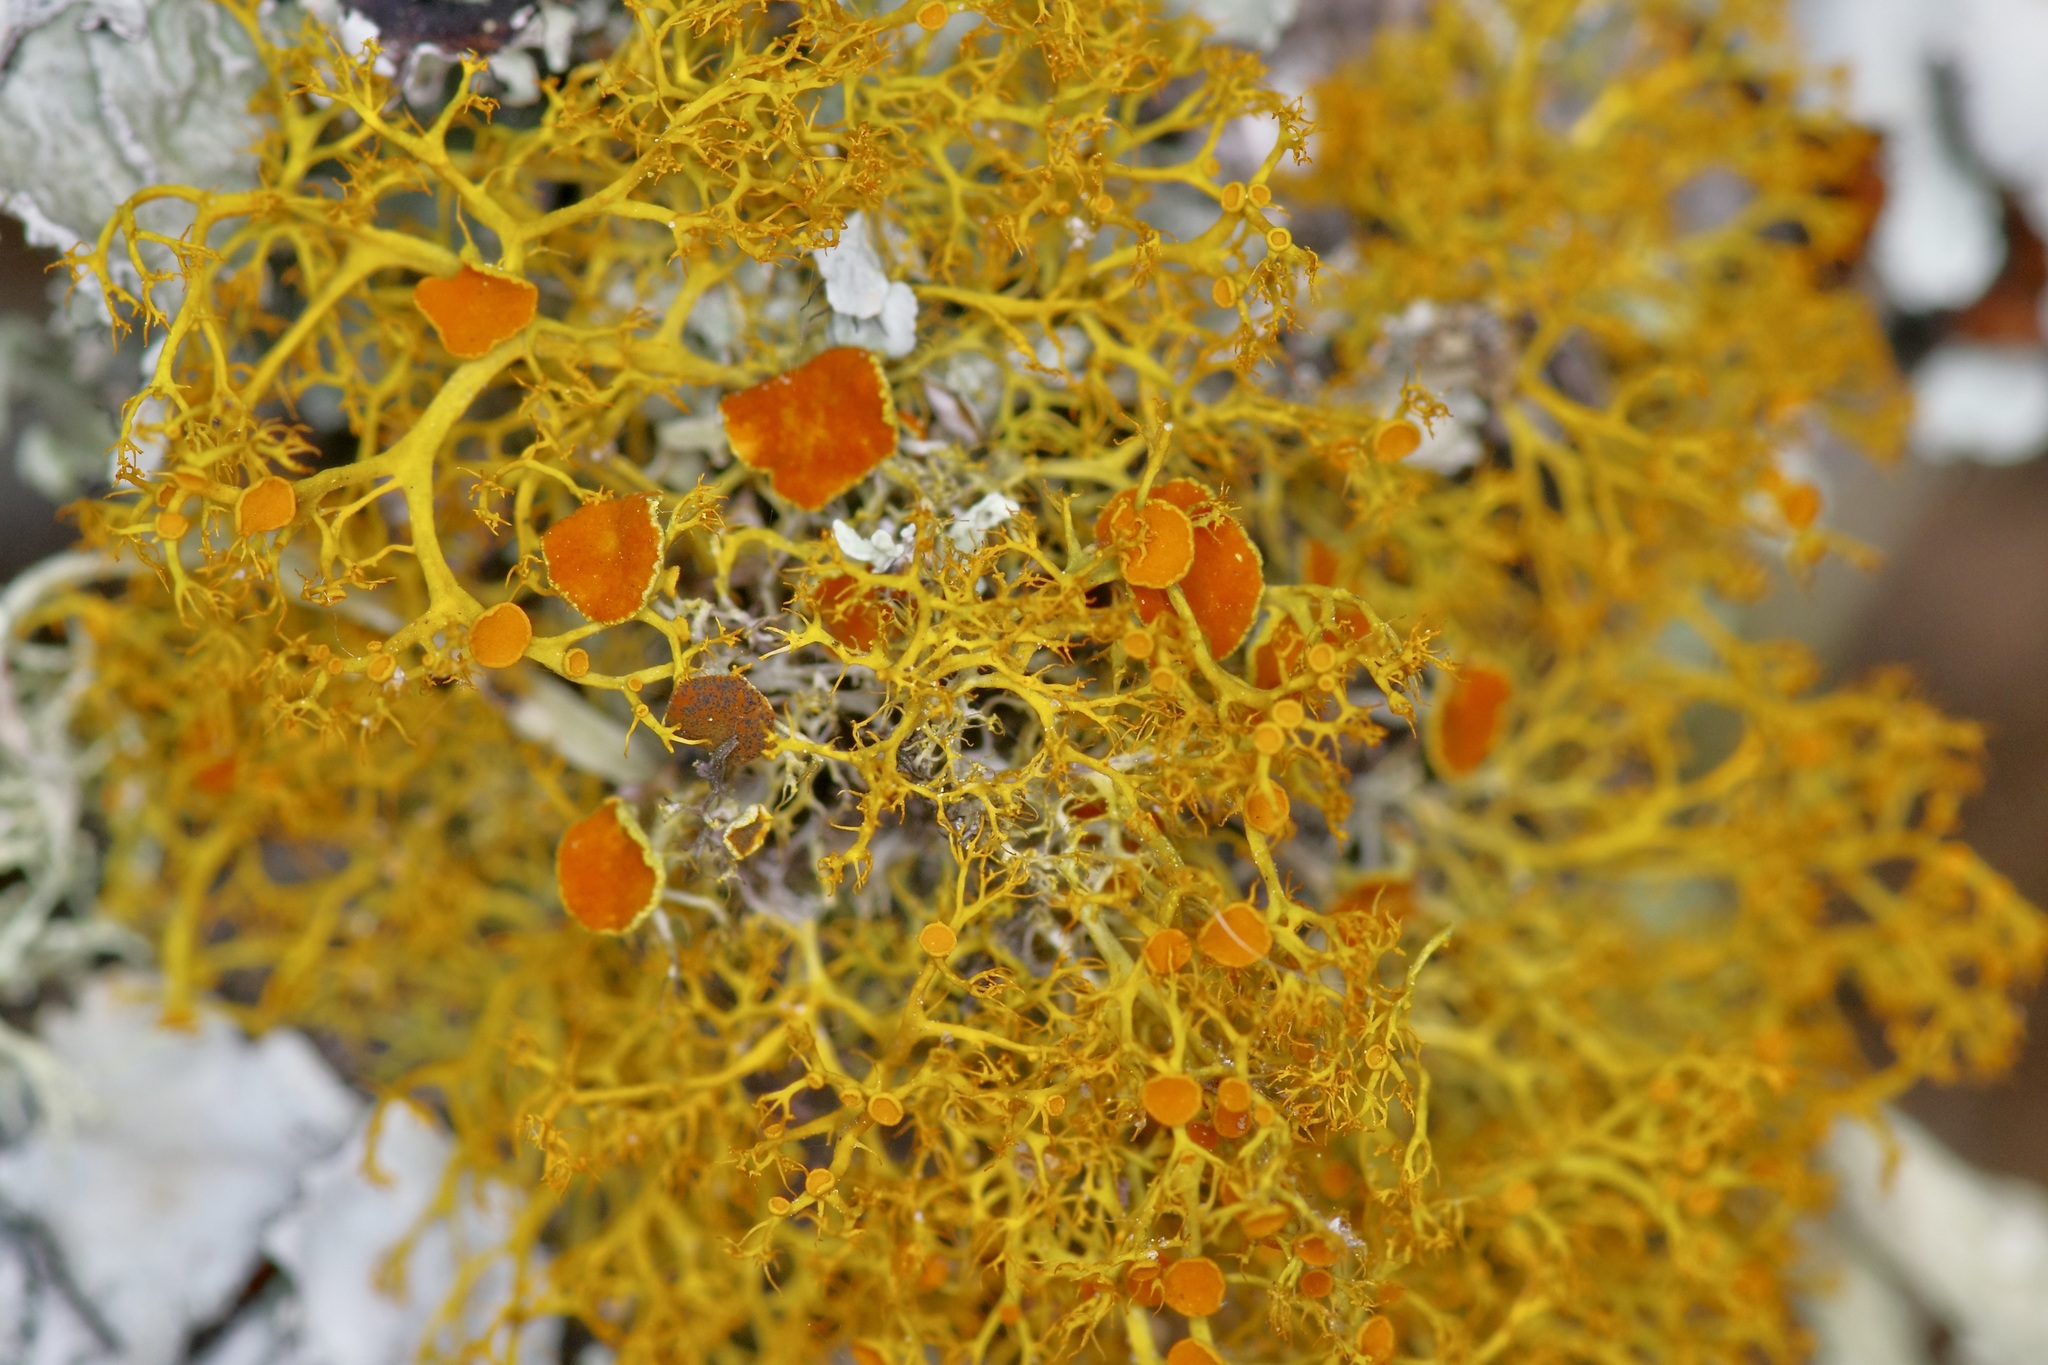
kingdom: Fungi
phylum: Ascomycota
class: Lecanoromycetes
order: Teloschistales
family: Teloschistaceae
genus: Teloschistes
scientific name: Teloschistes exilis
